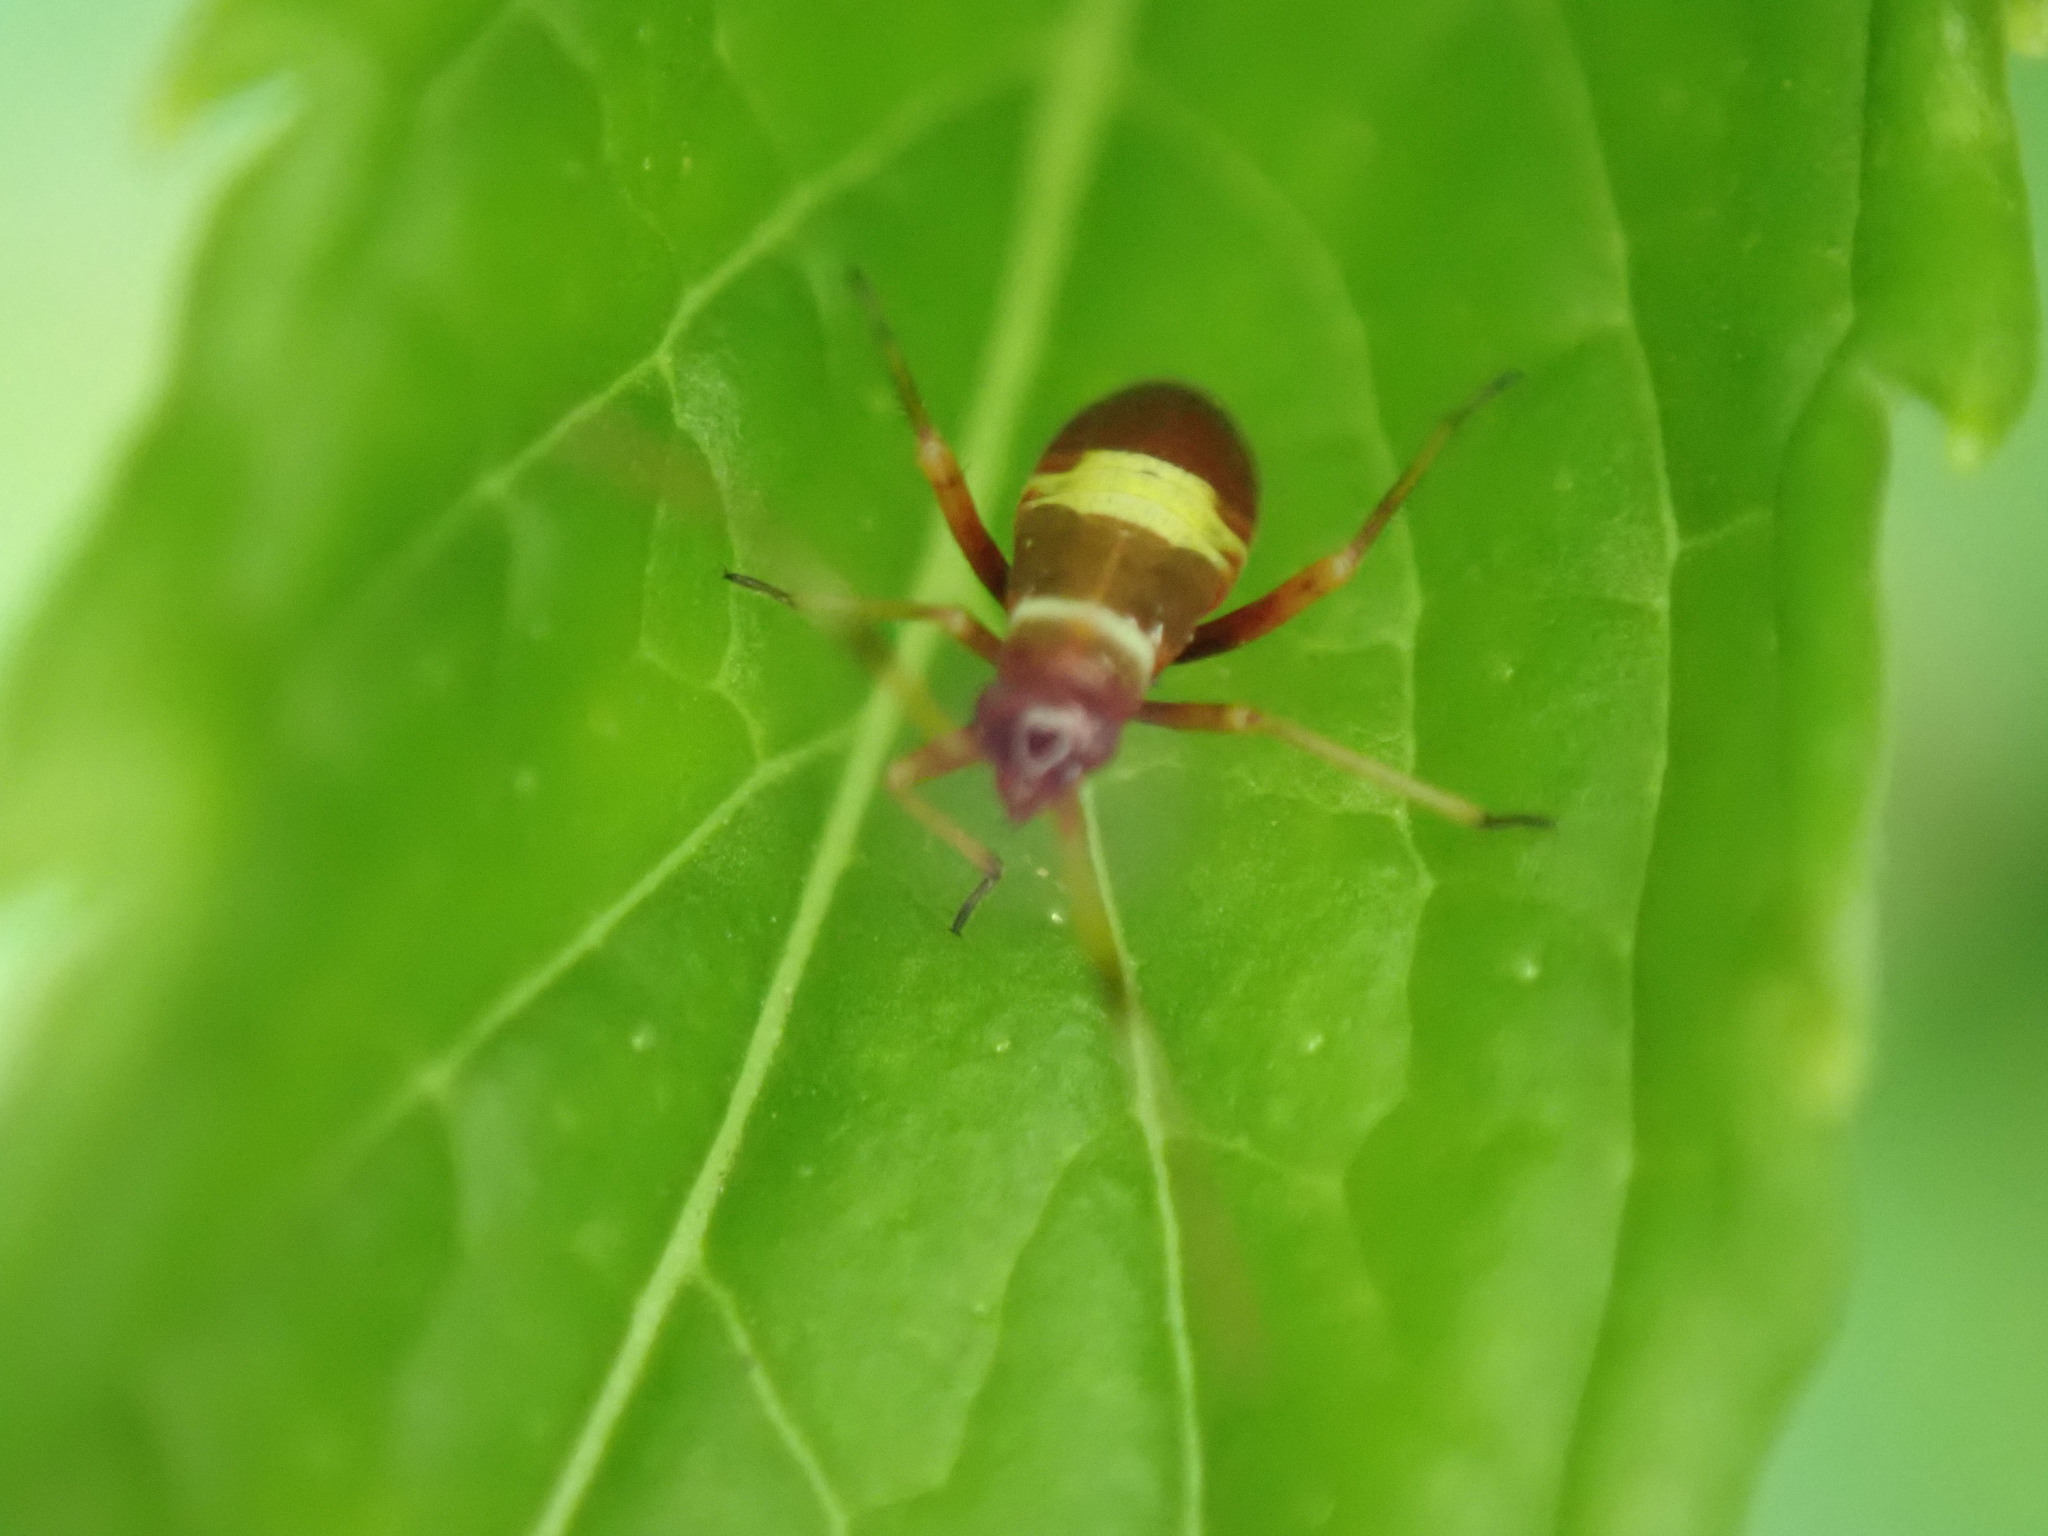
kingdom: Animalia
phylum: Arthropoda
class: Insecta
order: Hemiptera
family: Miridae
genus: Closterotomus
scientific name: Closterotomus biclavatus
